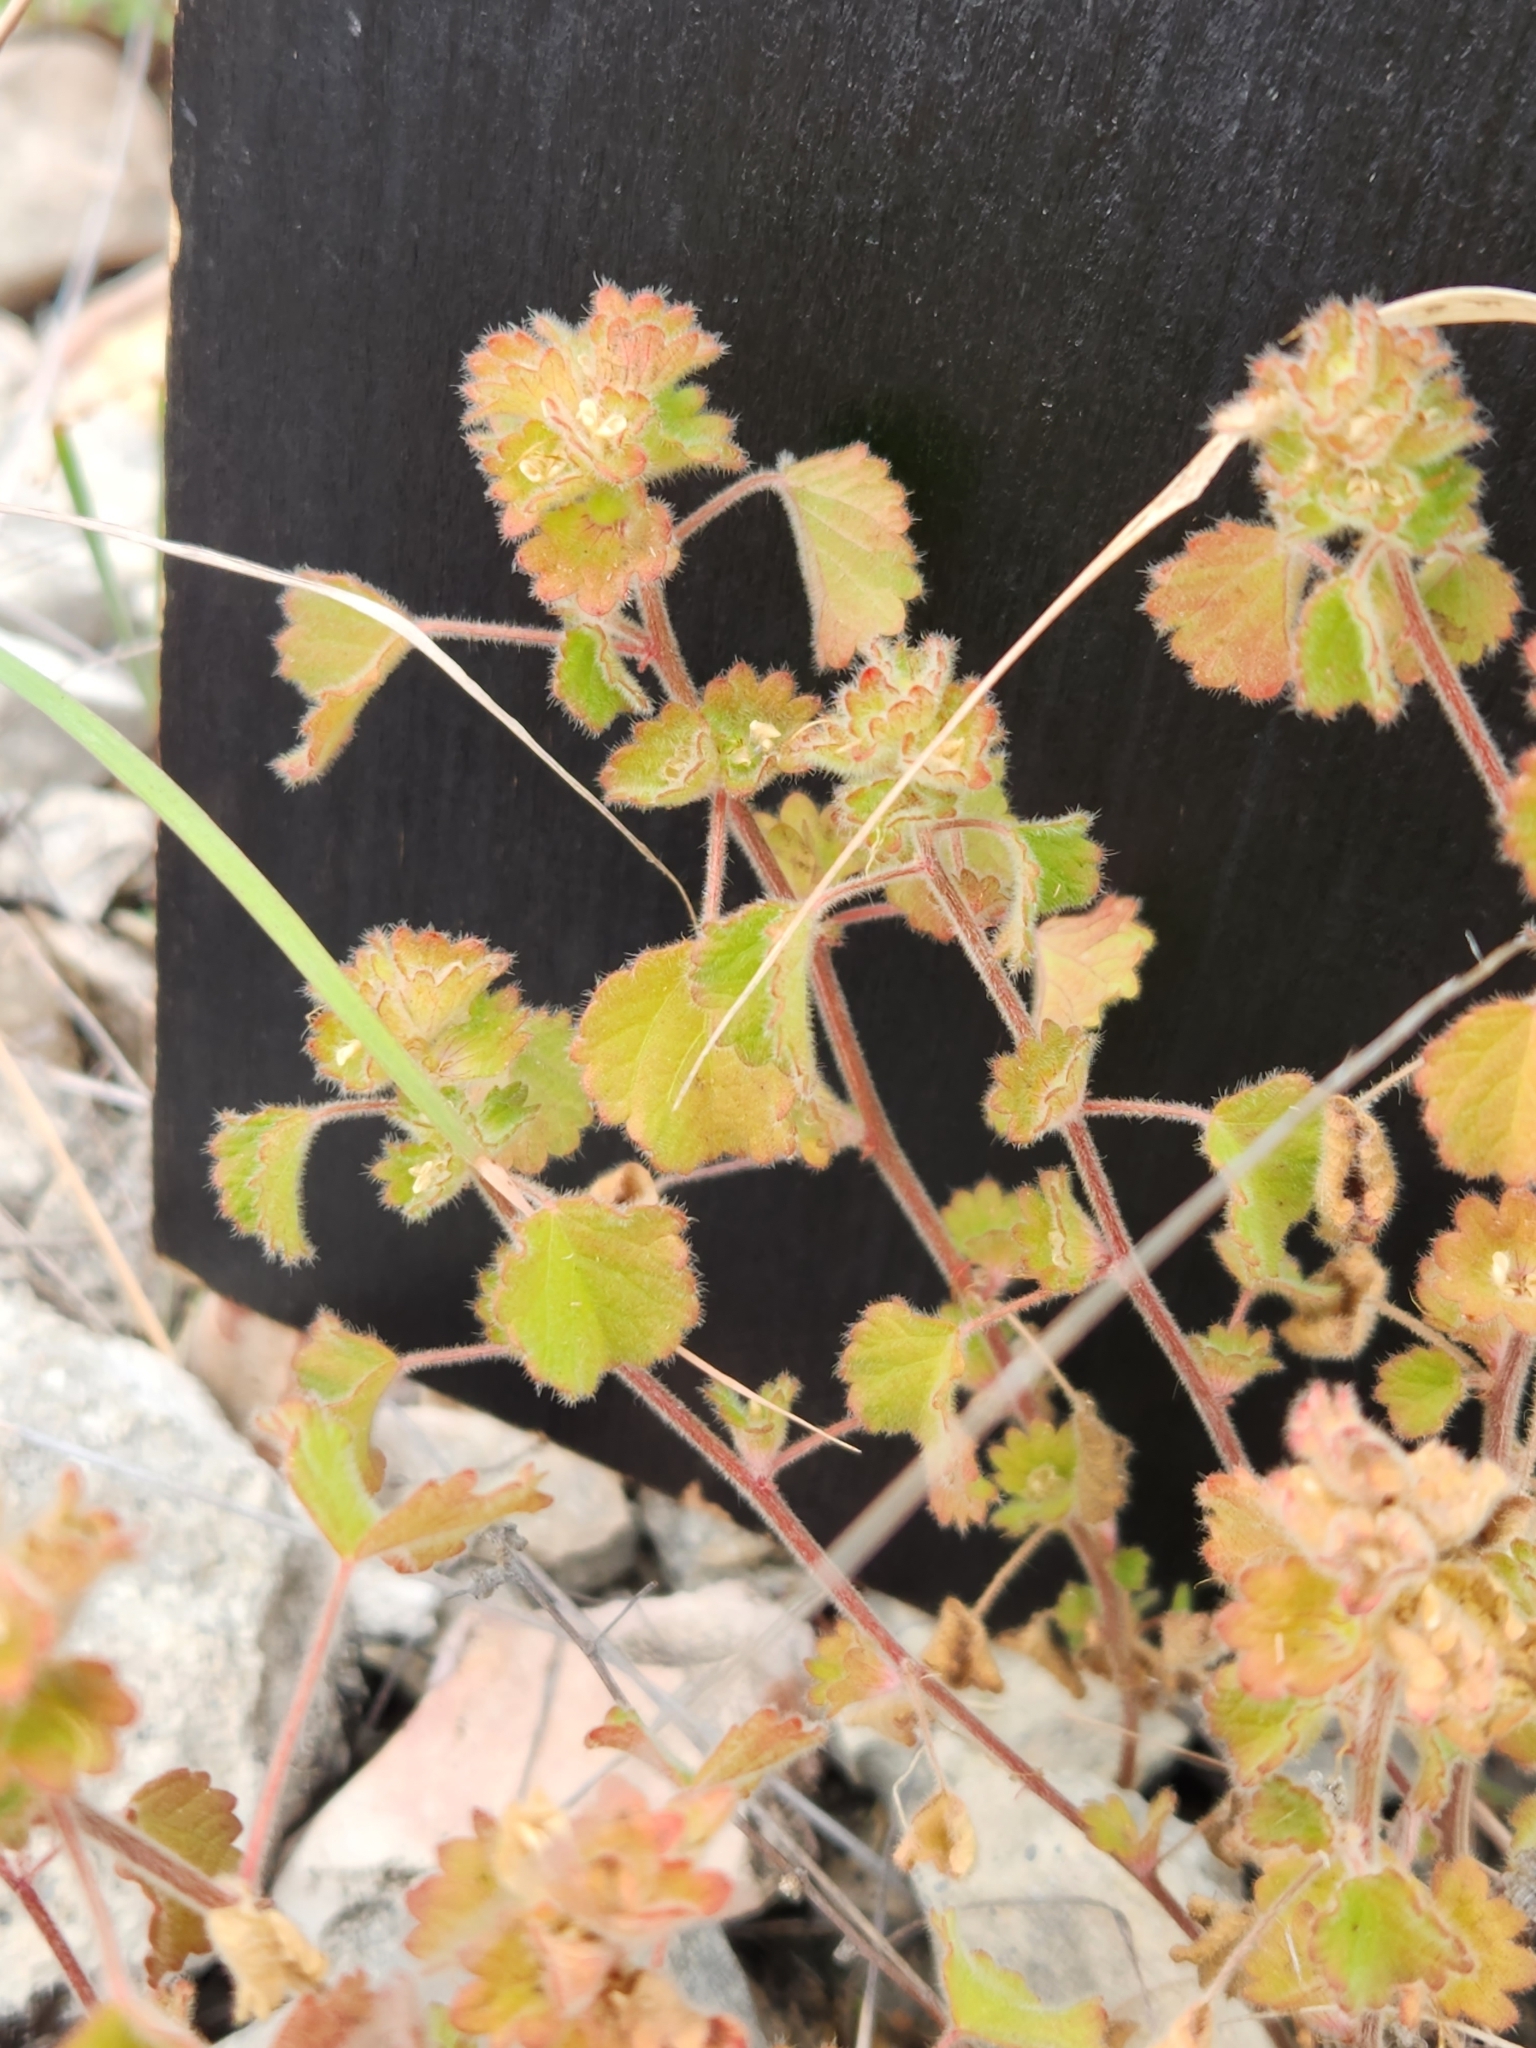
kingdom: Plantae
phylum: Tracheophyta
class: Magnoliopsida
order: Malpighiales
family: Euphorbiaceae
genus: Acalypha
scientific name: Acalypha monostachya
